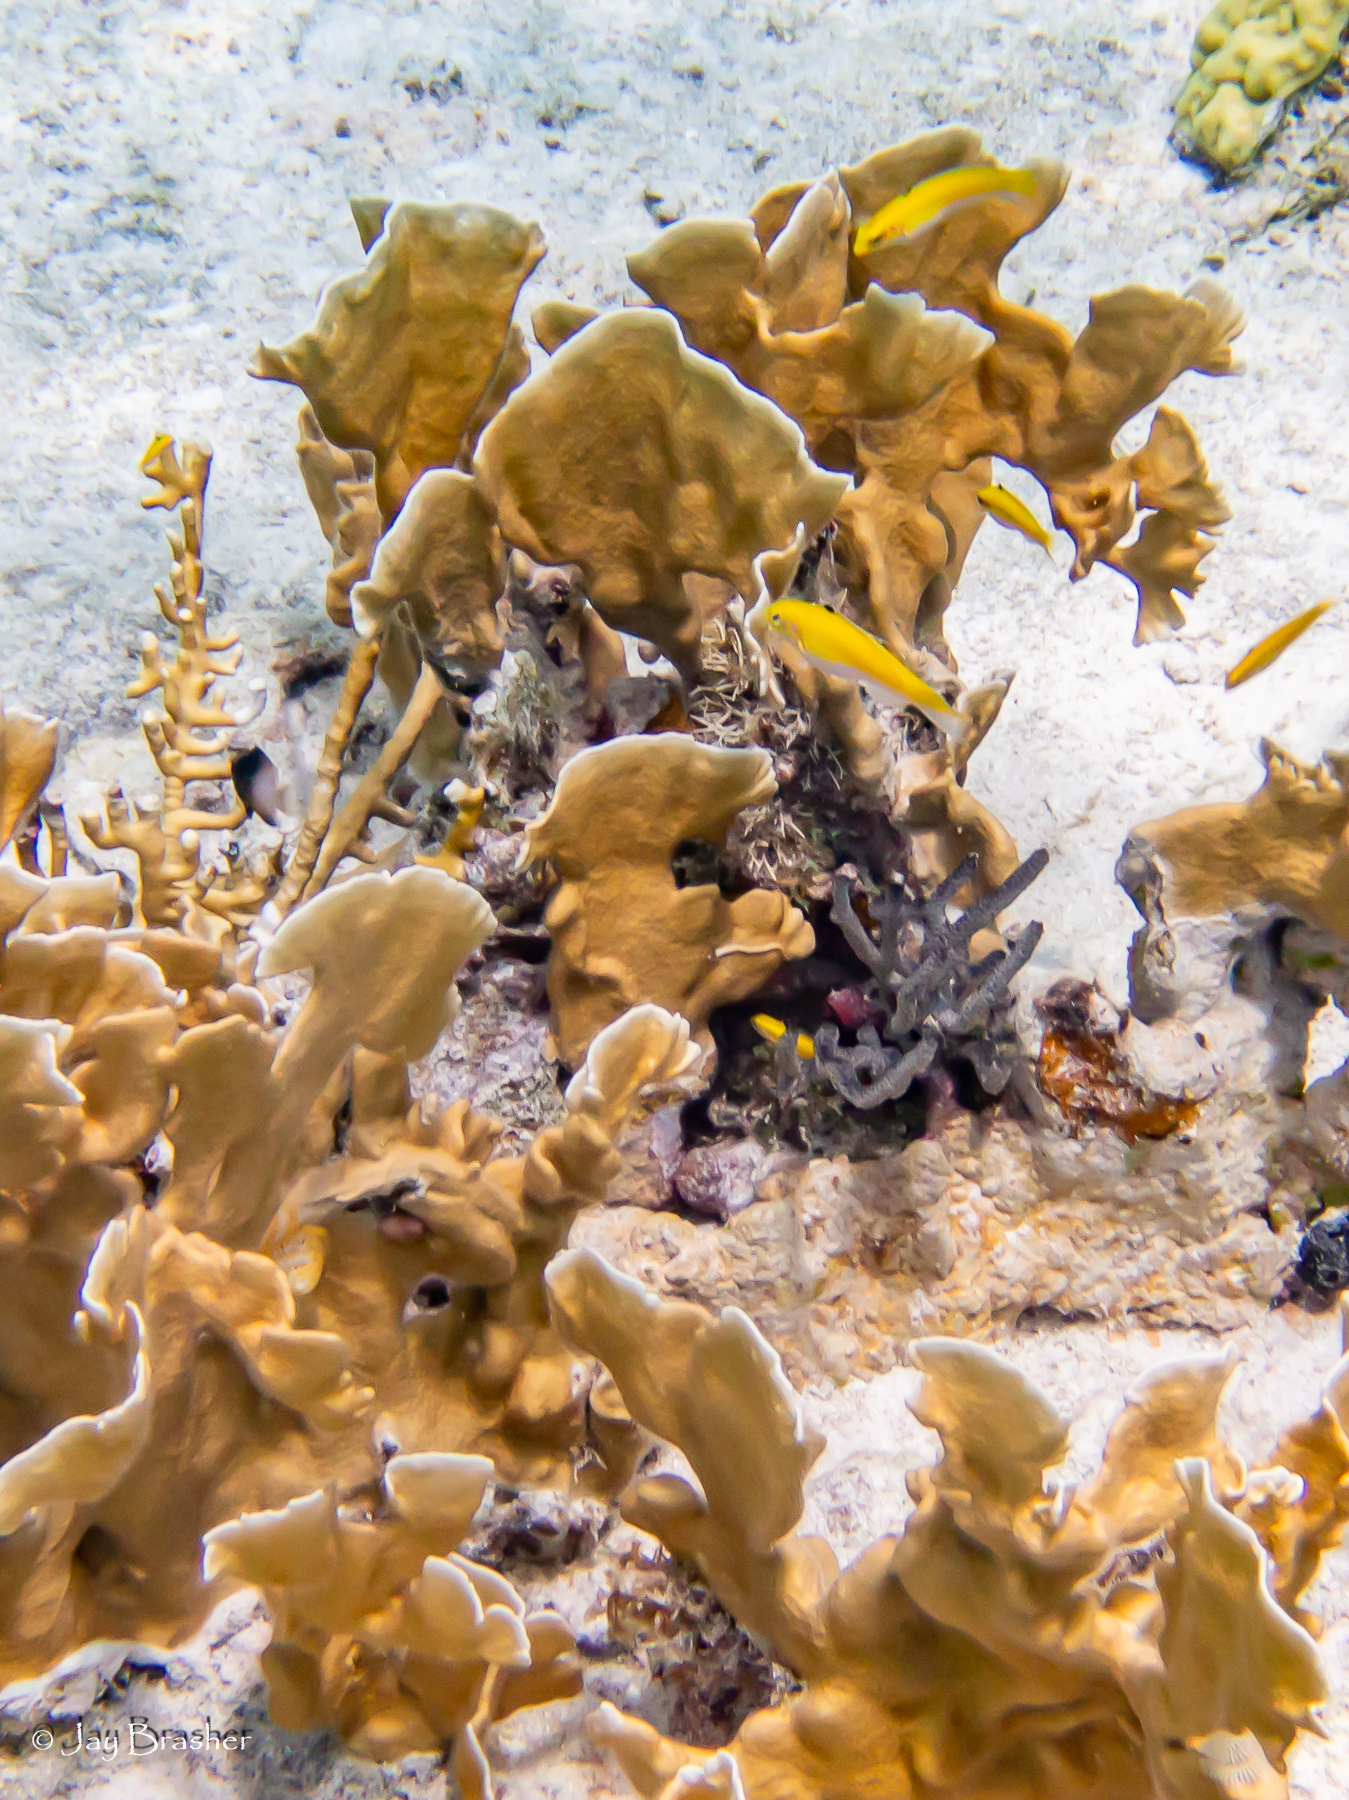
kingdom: Animalia
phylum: Chordata
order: Perciformes
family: Labridae
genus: Thalassoma
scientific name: Thalassoma bifasciatum
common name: Bluehead wrasse
